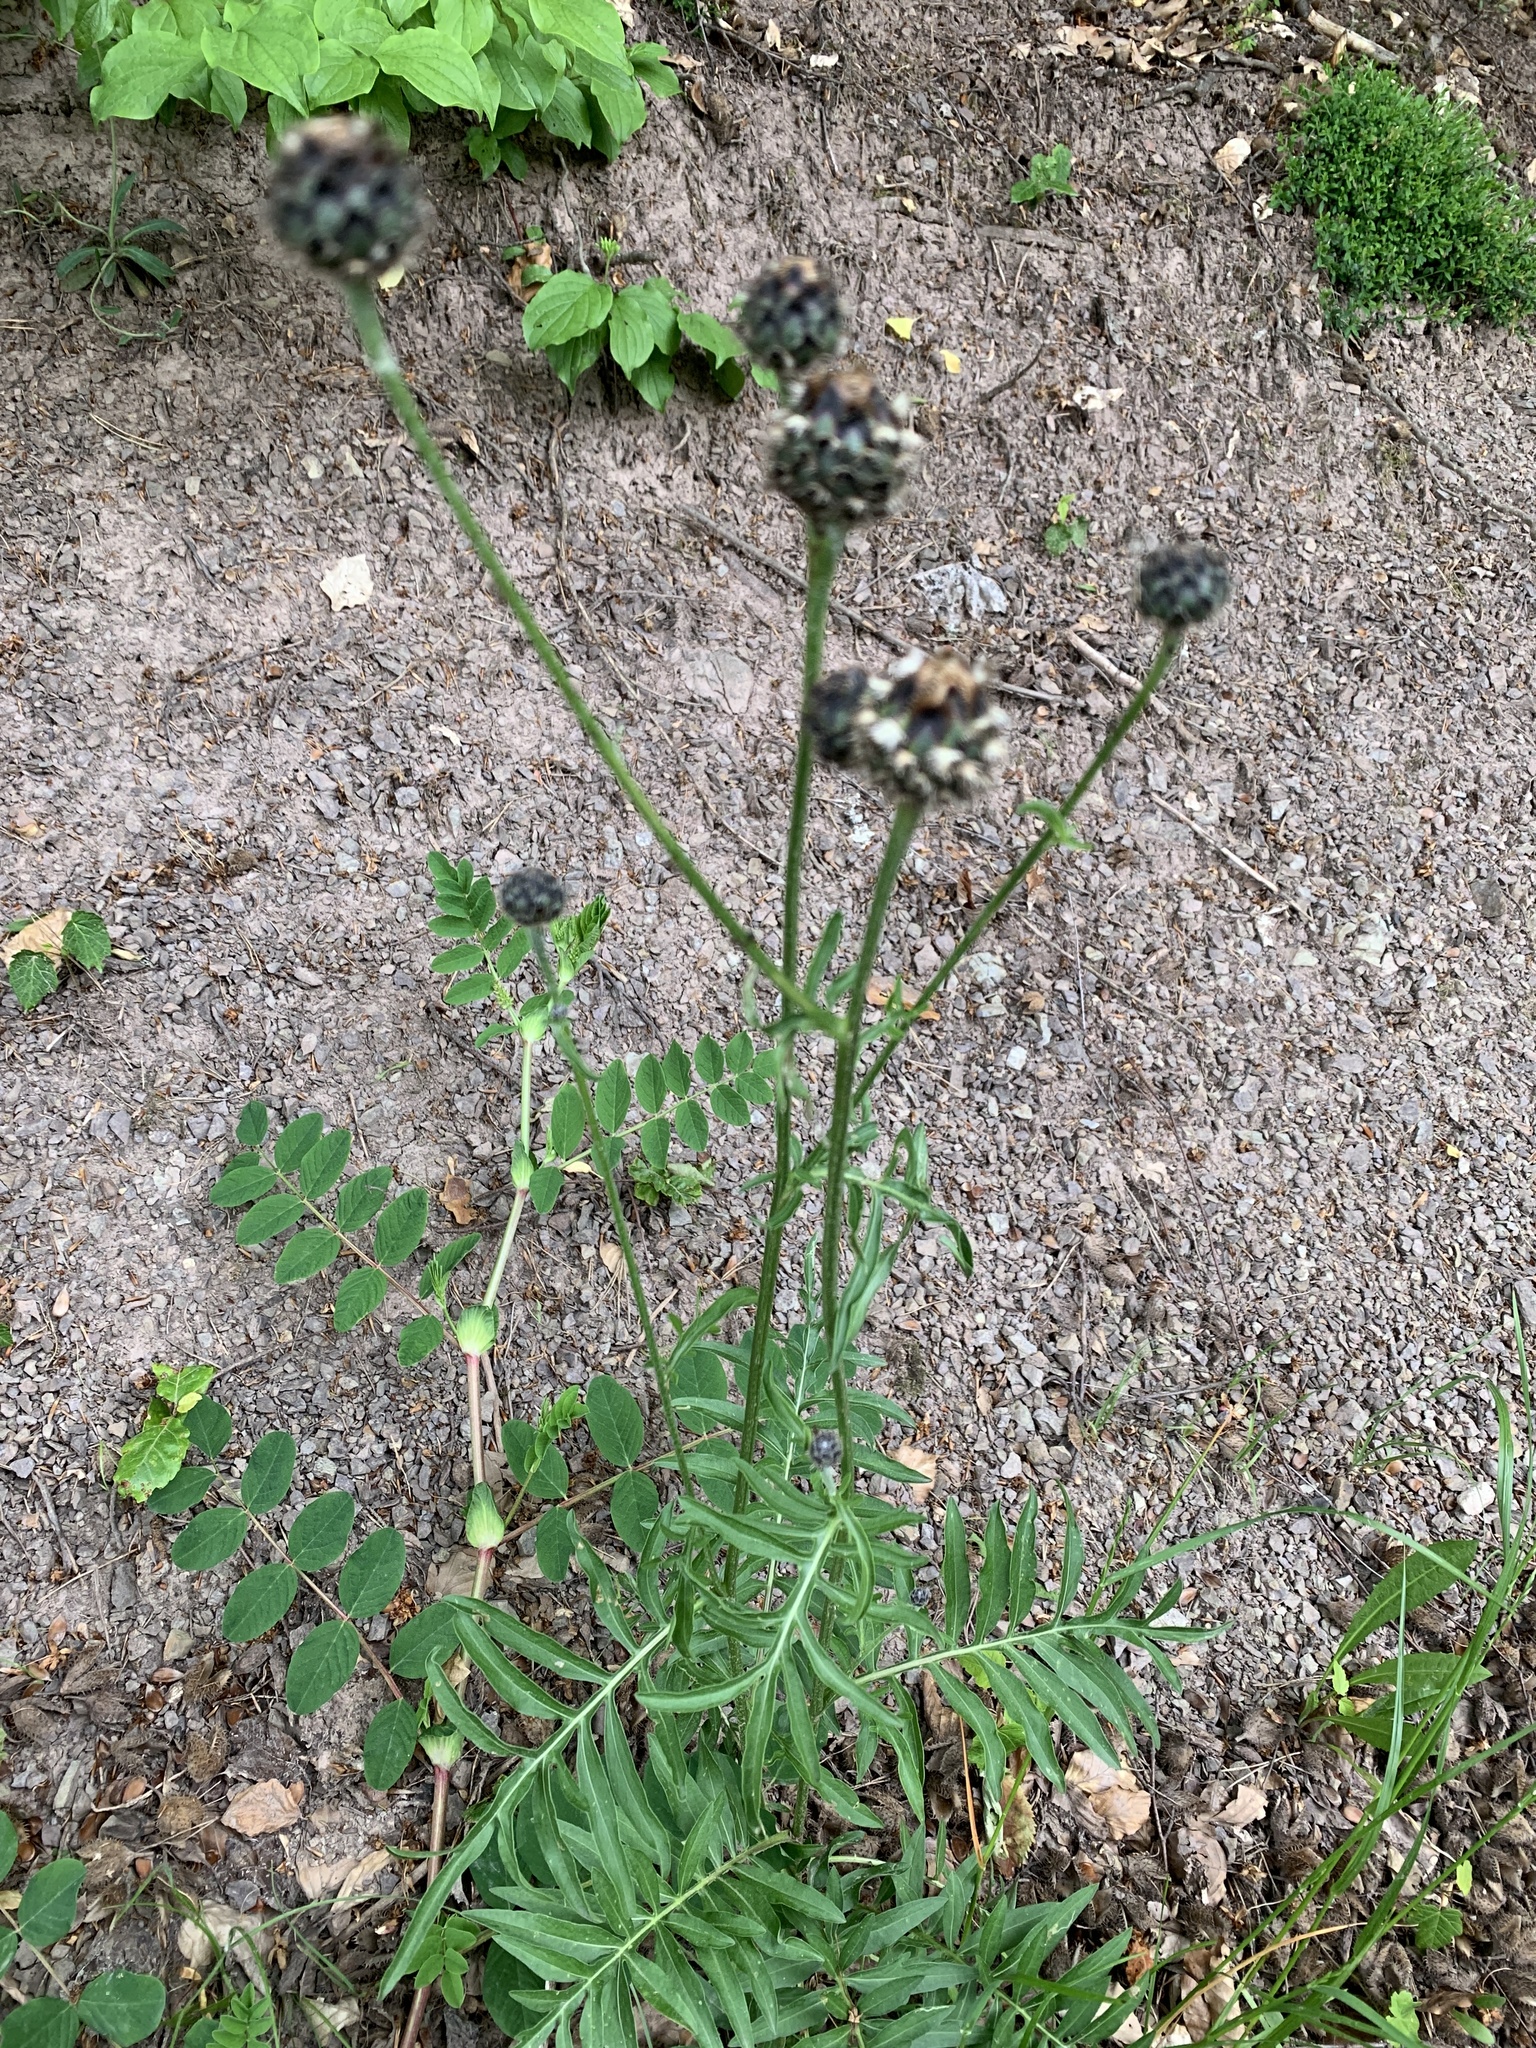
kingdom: Plantae
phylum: Tracheophyta
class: Magnoliopsida
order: Asterales
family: Asteraceae
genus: Centaurea
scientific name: Centaurea scabiosa
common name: Greater knapweed
